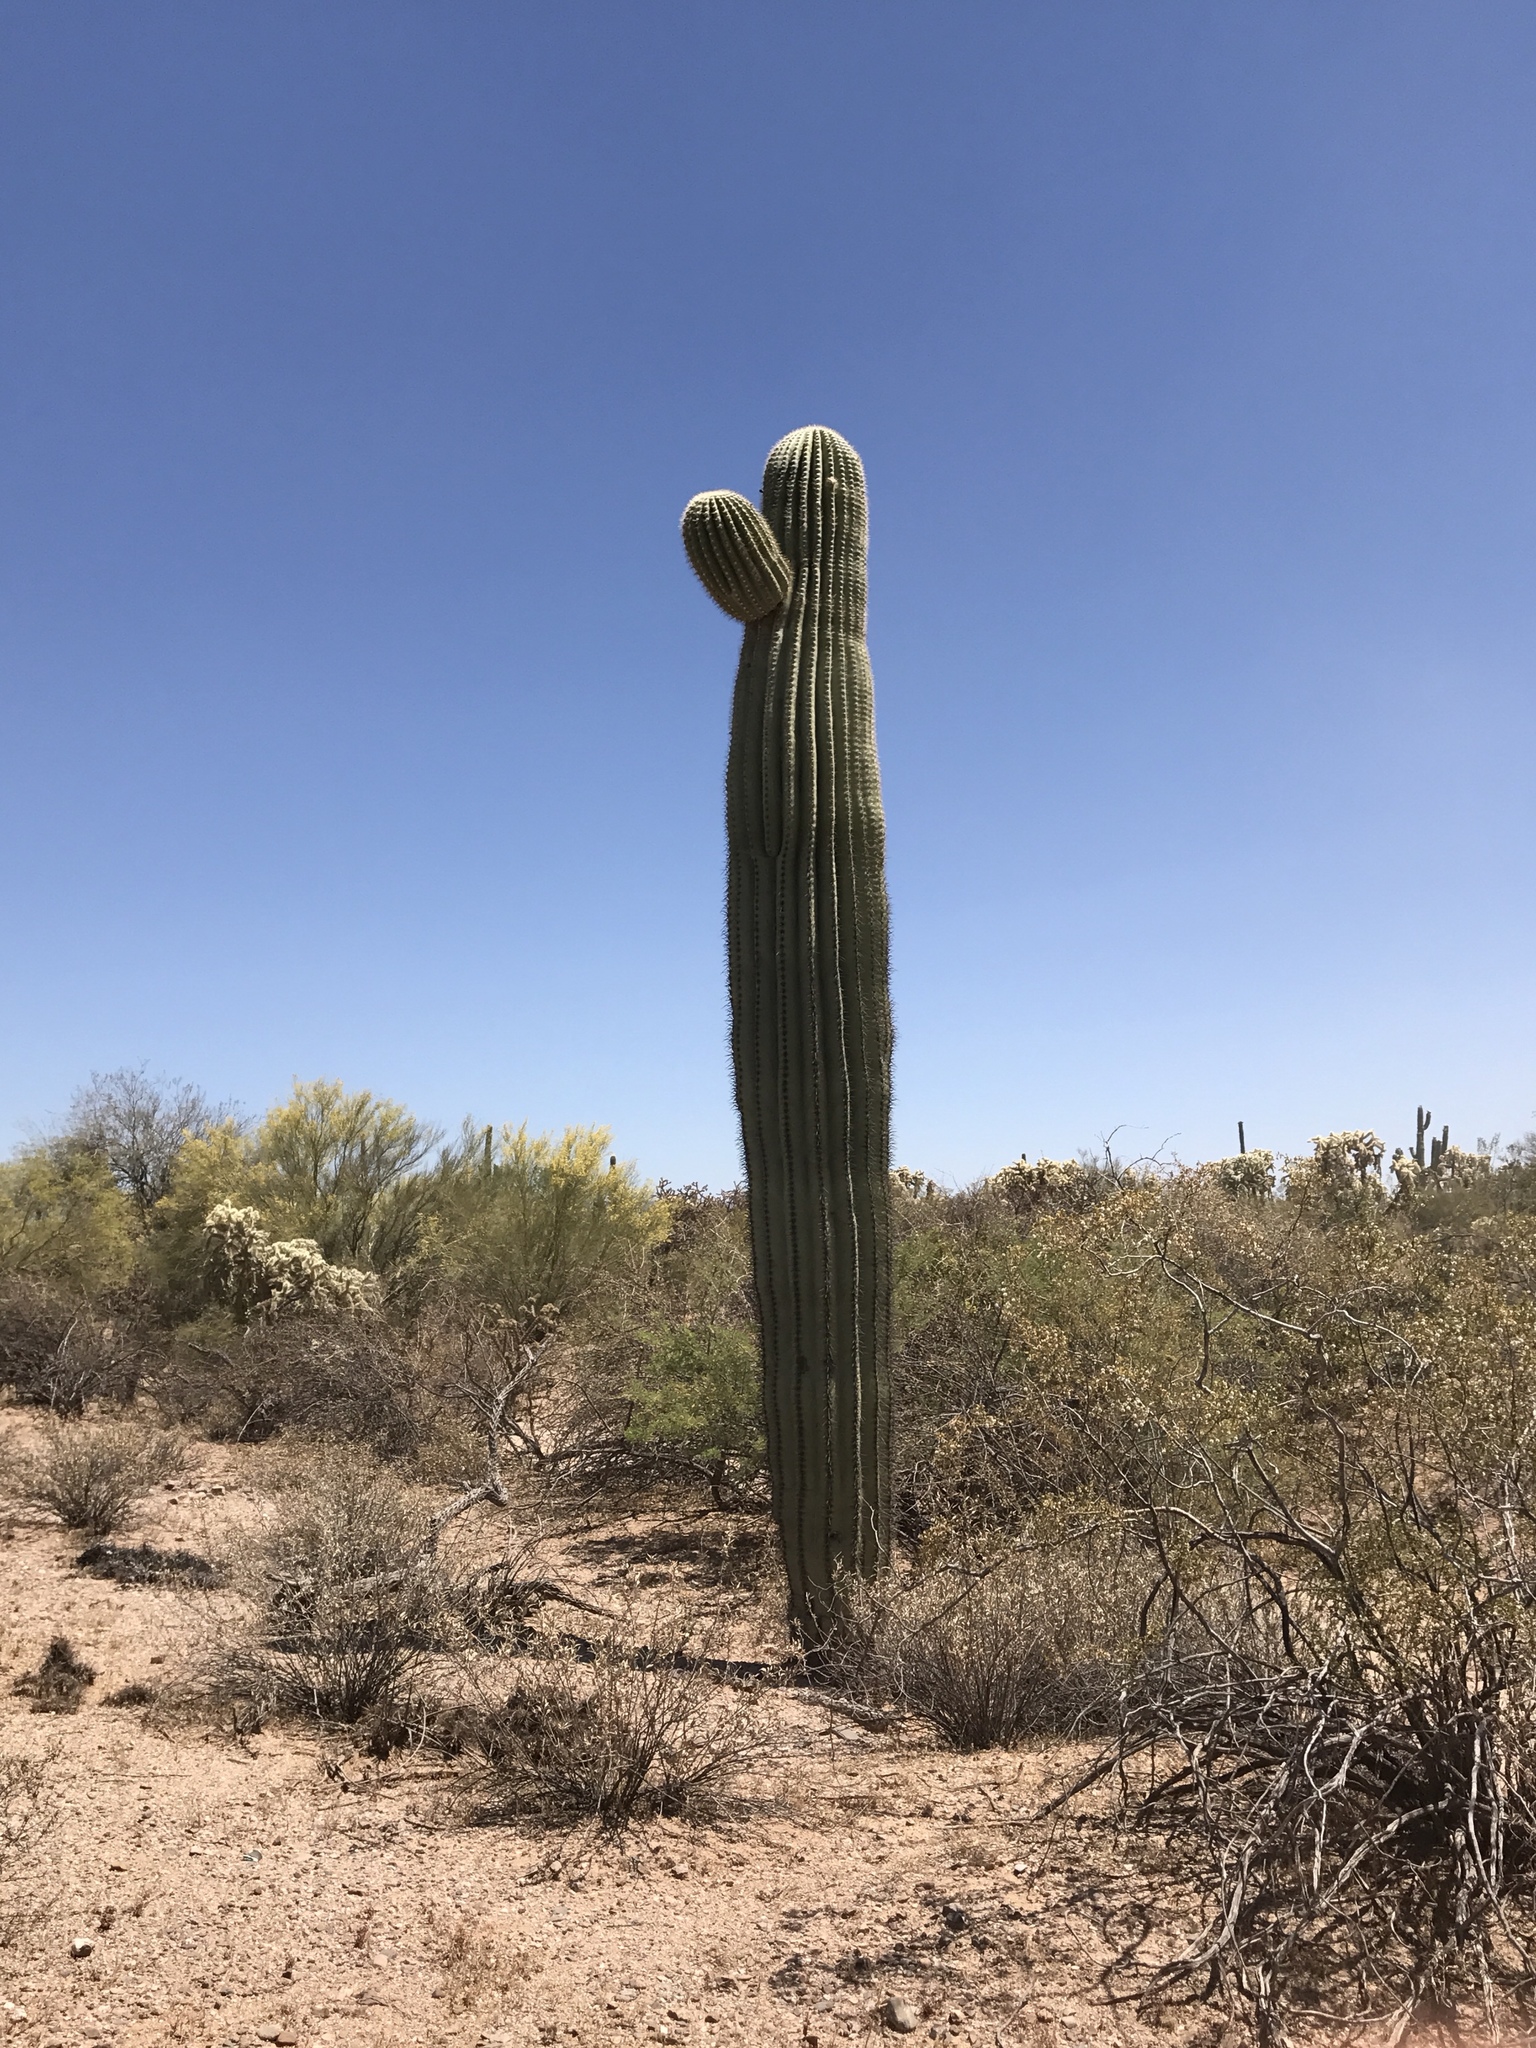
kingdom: Plantae
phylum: Tracheophyta
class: Magnoliopsida
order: Caryophyllales
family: Cactaceae
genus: Carnegiea
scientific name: Carnegiea gigantea
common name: Saguaro
